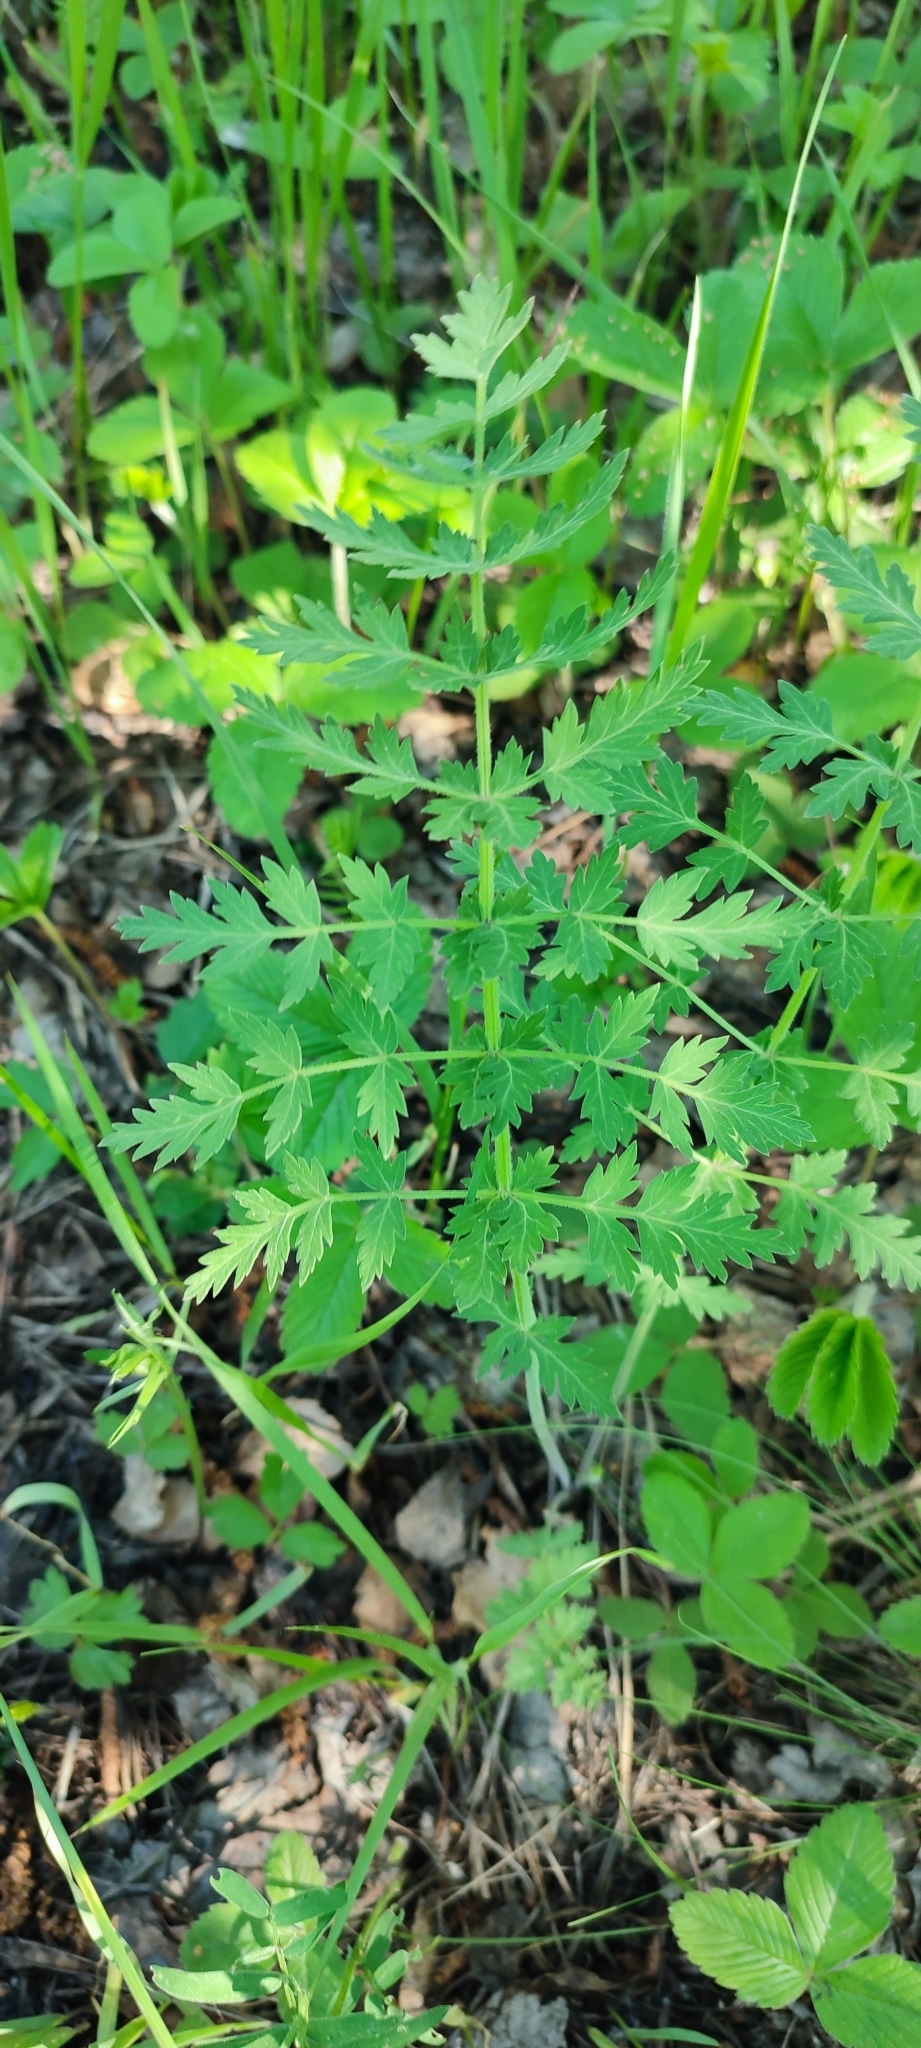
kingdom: Plantae
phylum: Tracheophyta
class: Magnoliopsida
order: Apiales
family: Apiaceae
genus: Seseli
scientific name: Seseli libanotis
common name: Mooncarrot
